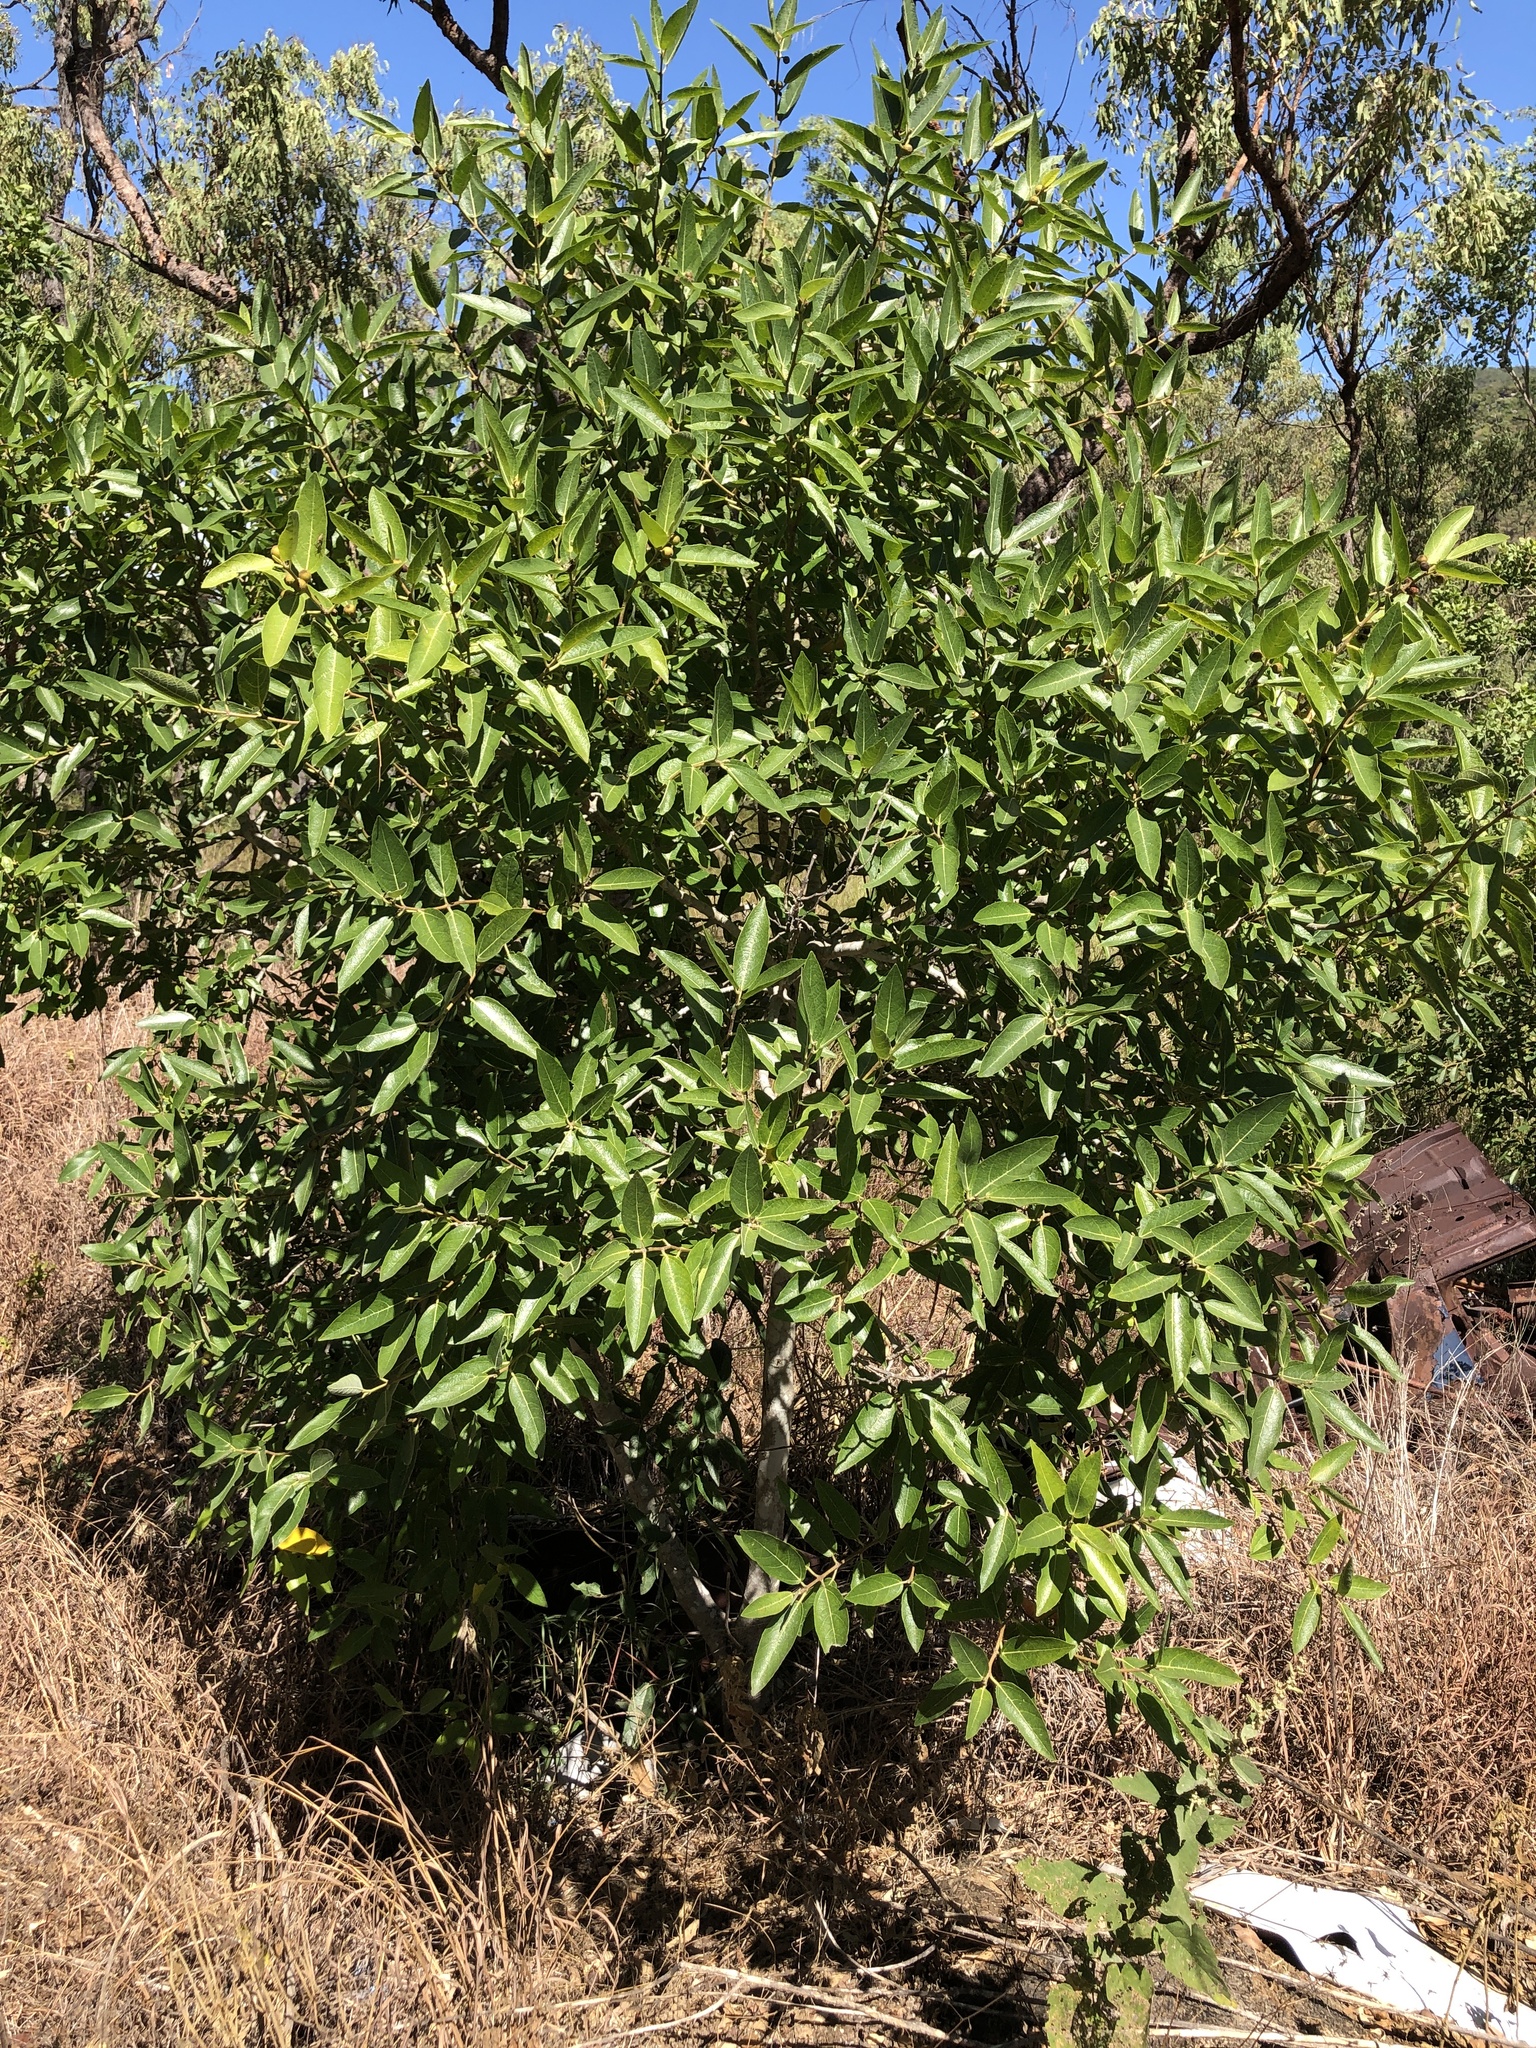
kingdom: Plantae
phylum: Tracheophyta
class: Magnoliopsida
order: Rosales
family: Moraceae
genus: Ficus
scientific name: Ficus opposita
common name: Figwood
